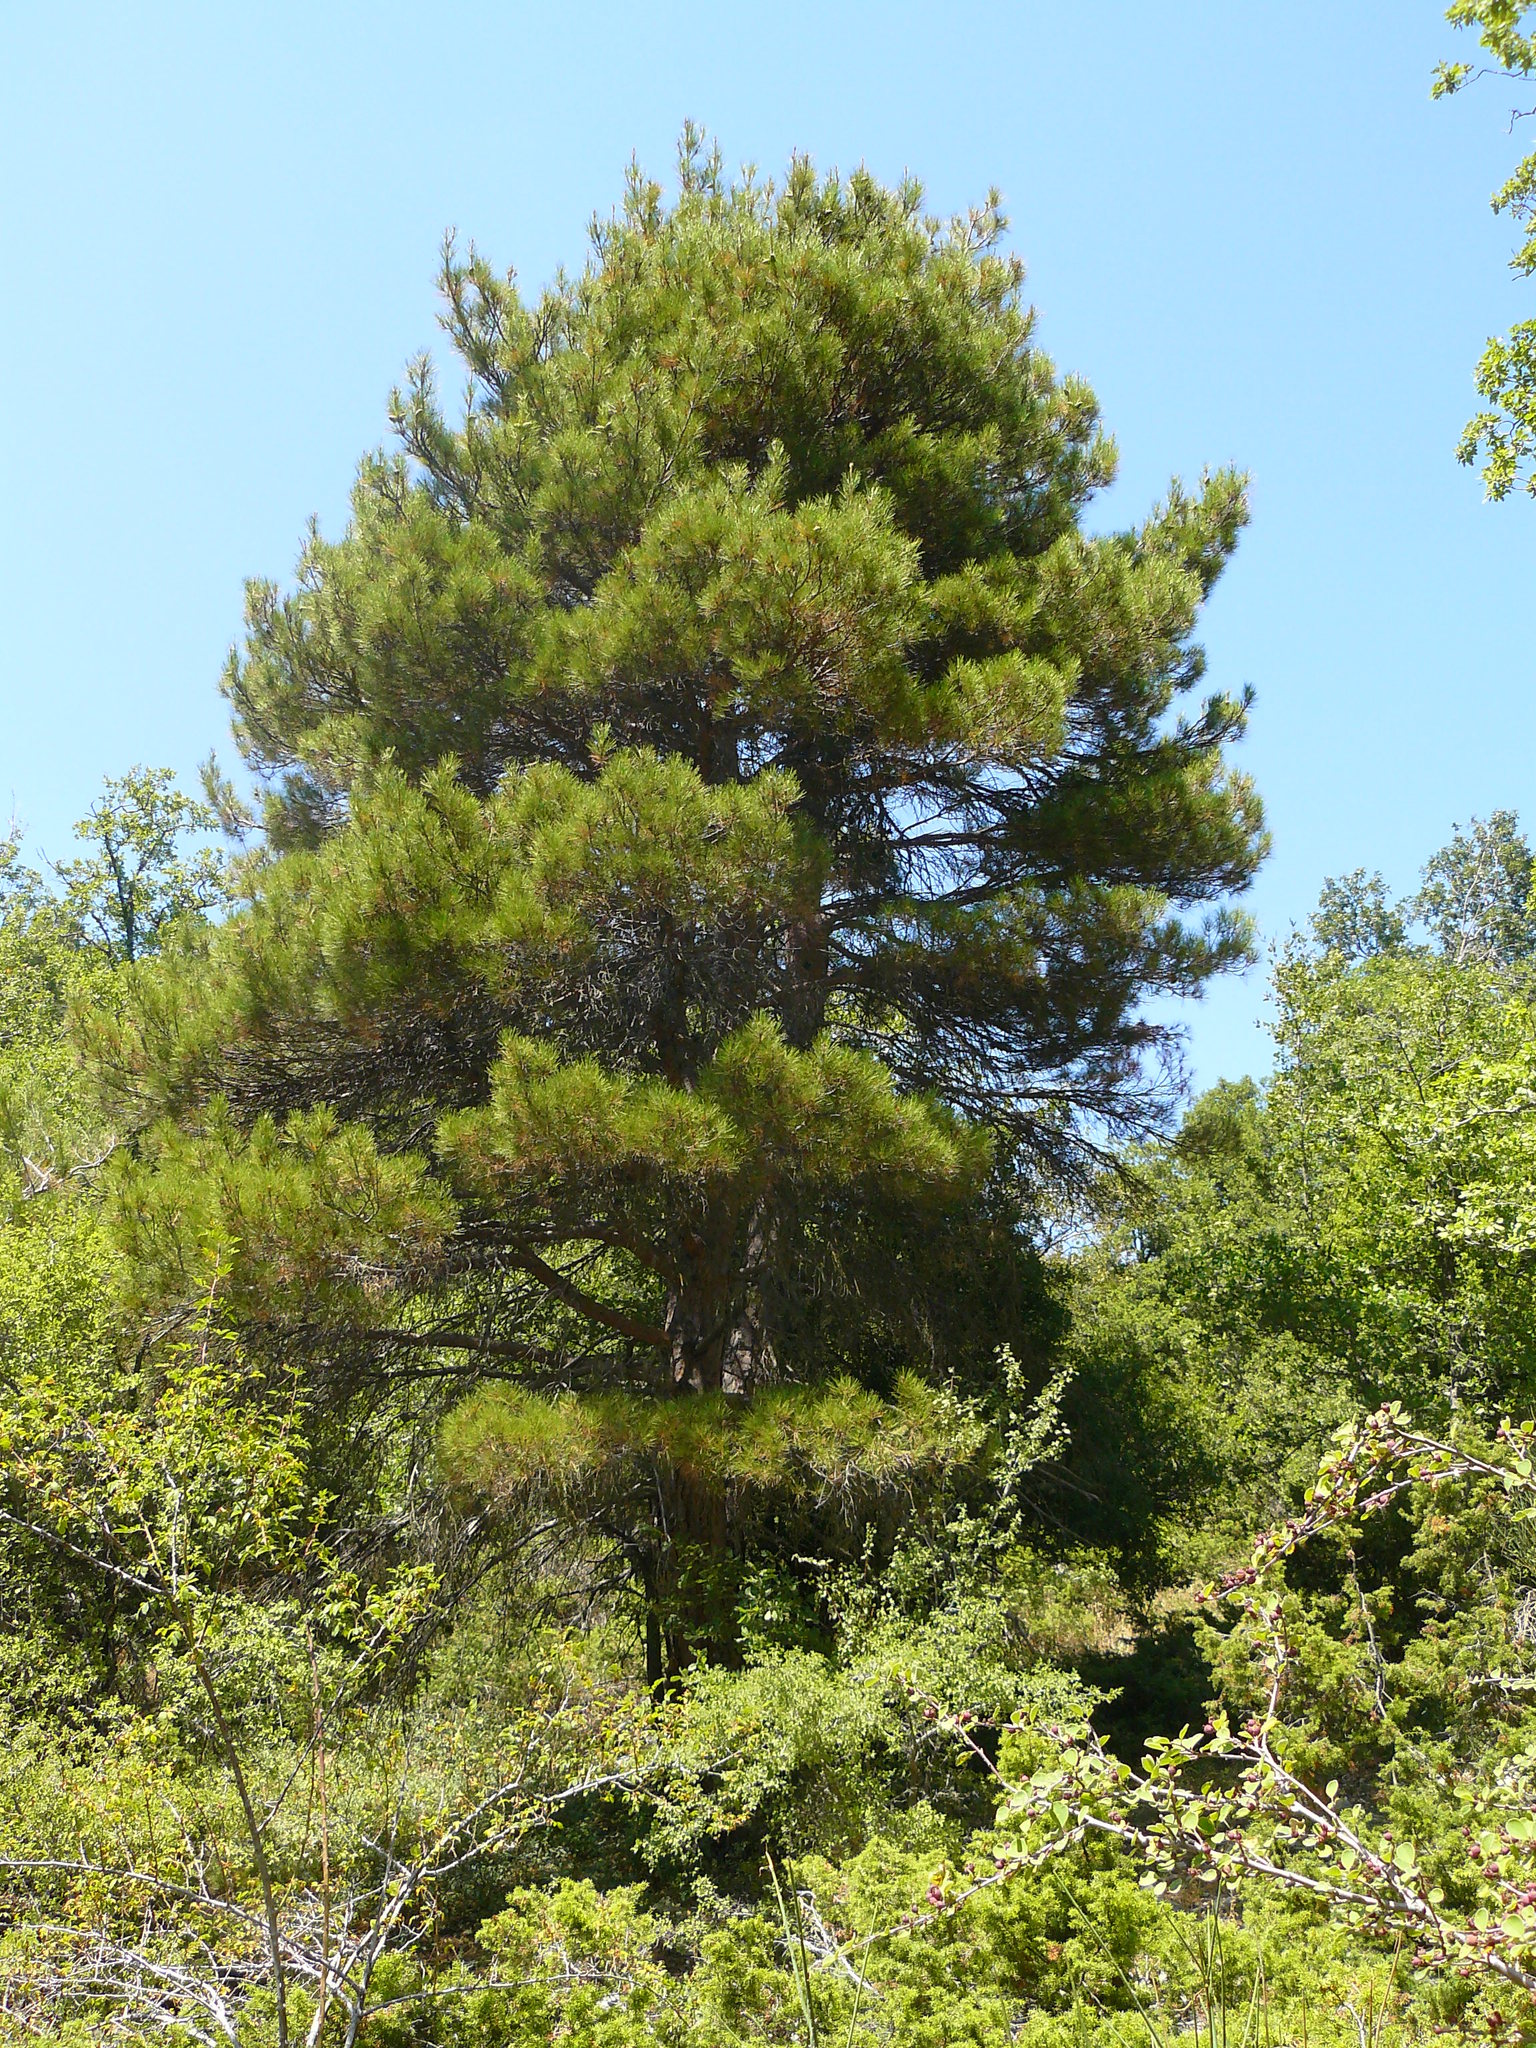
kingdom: Plantae
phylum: Tracheophyta
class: Pinopsida
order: Pinales
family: Pinaceae
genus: Pinus
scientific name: Pinus brutia
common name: Turkish pine
